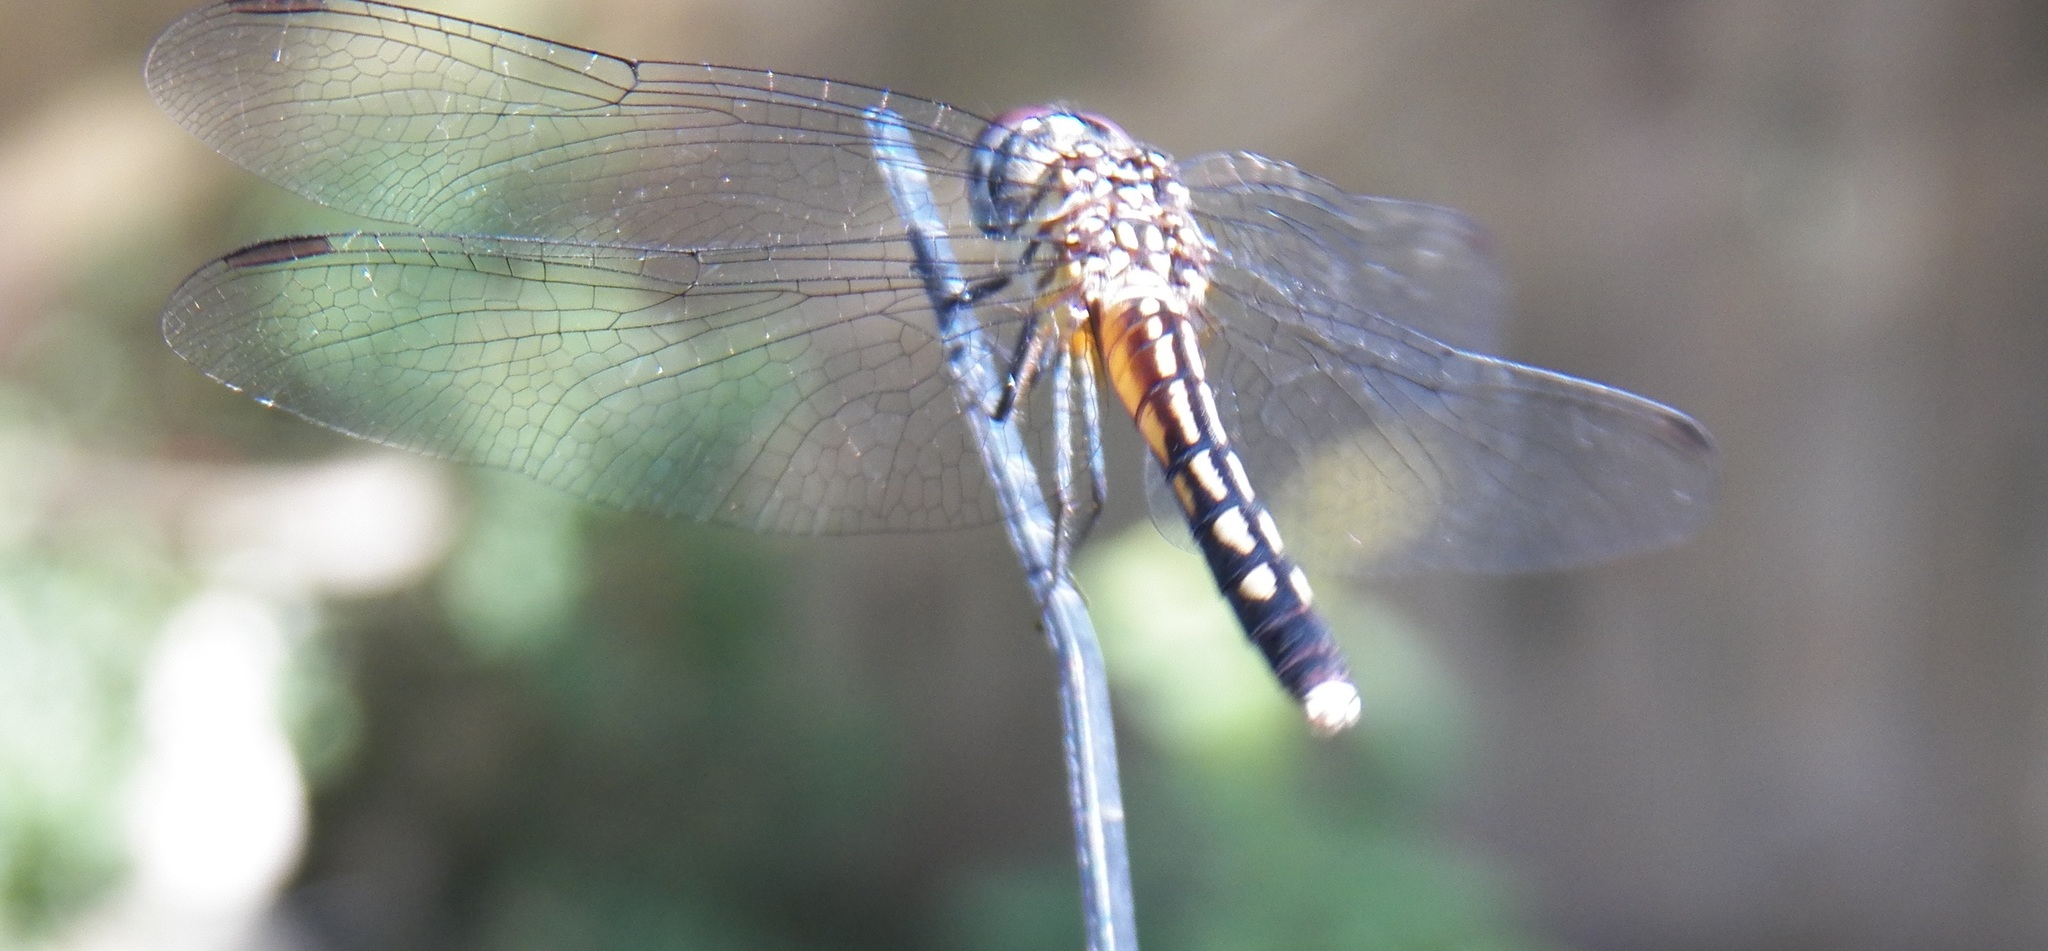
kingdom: Animalia
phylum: Arthropoda
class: Insecta
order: Odonata
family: Libellulidae
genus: Pachydiplax
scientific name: Pachydiplax longipennis
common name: Blue dasher
